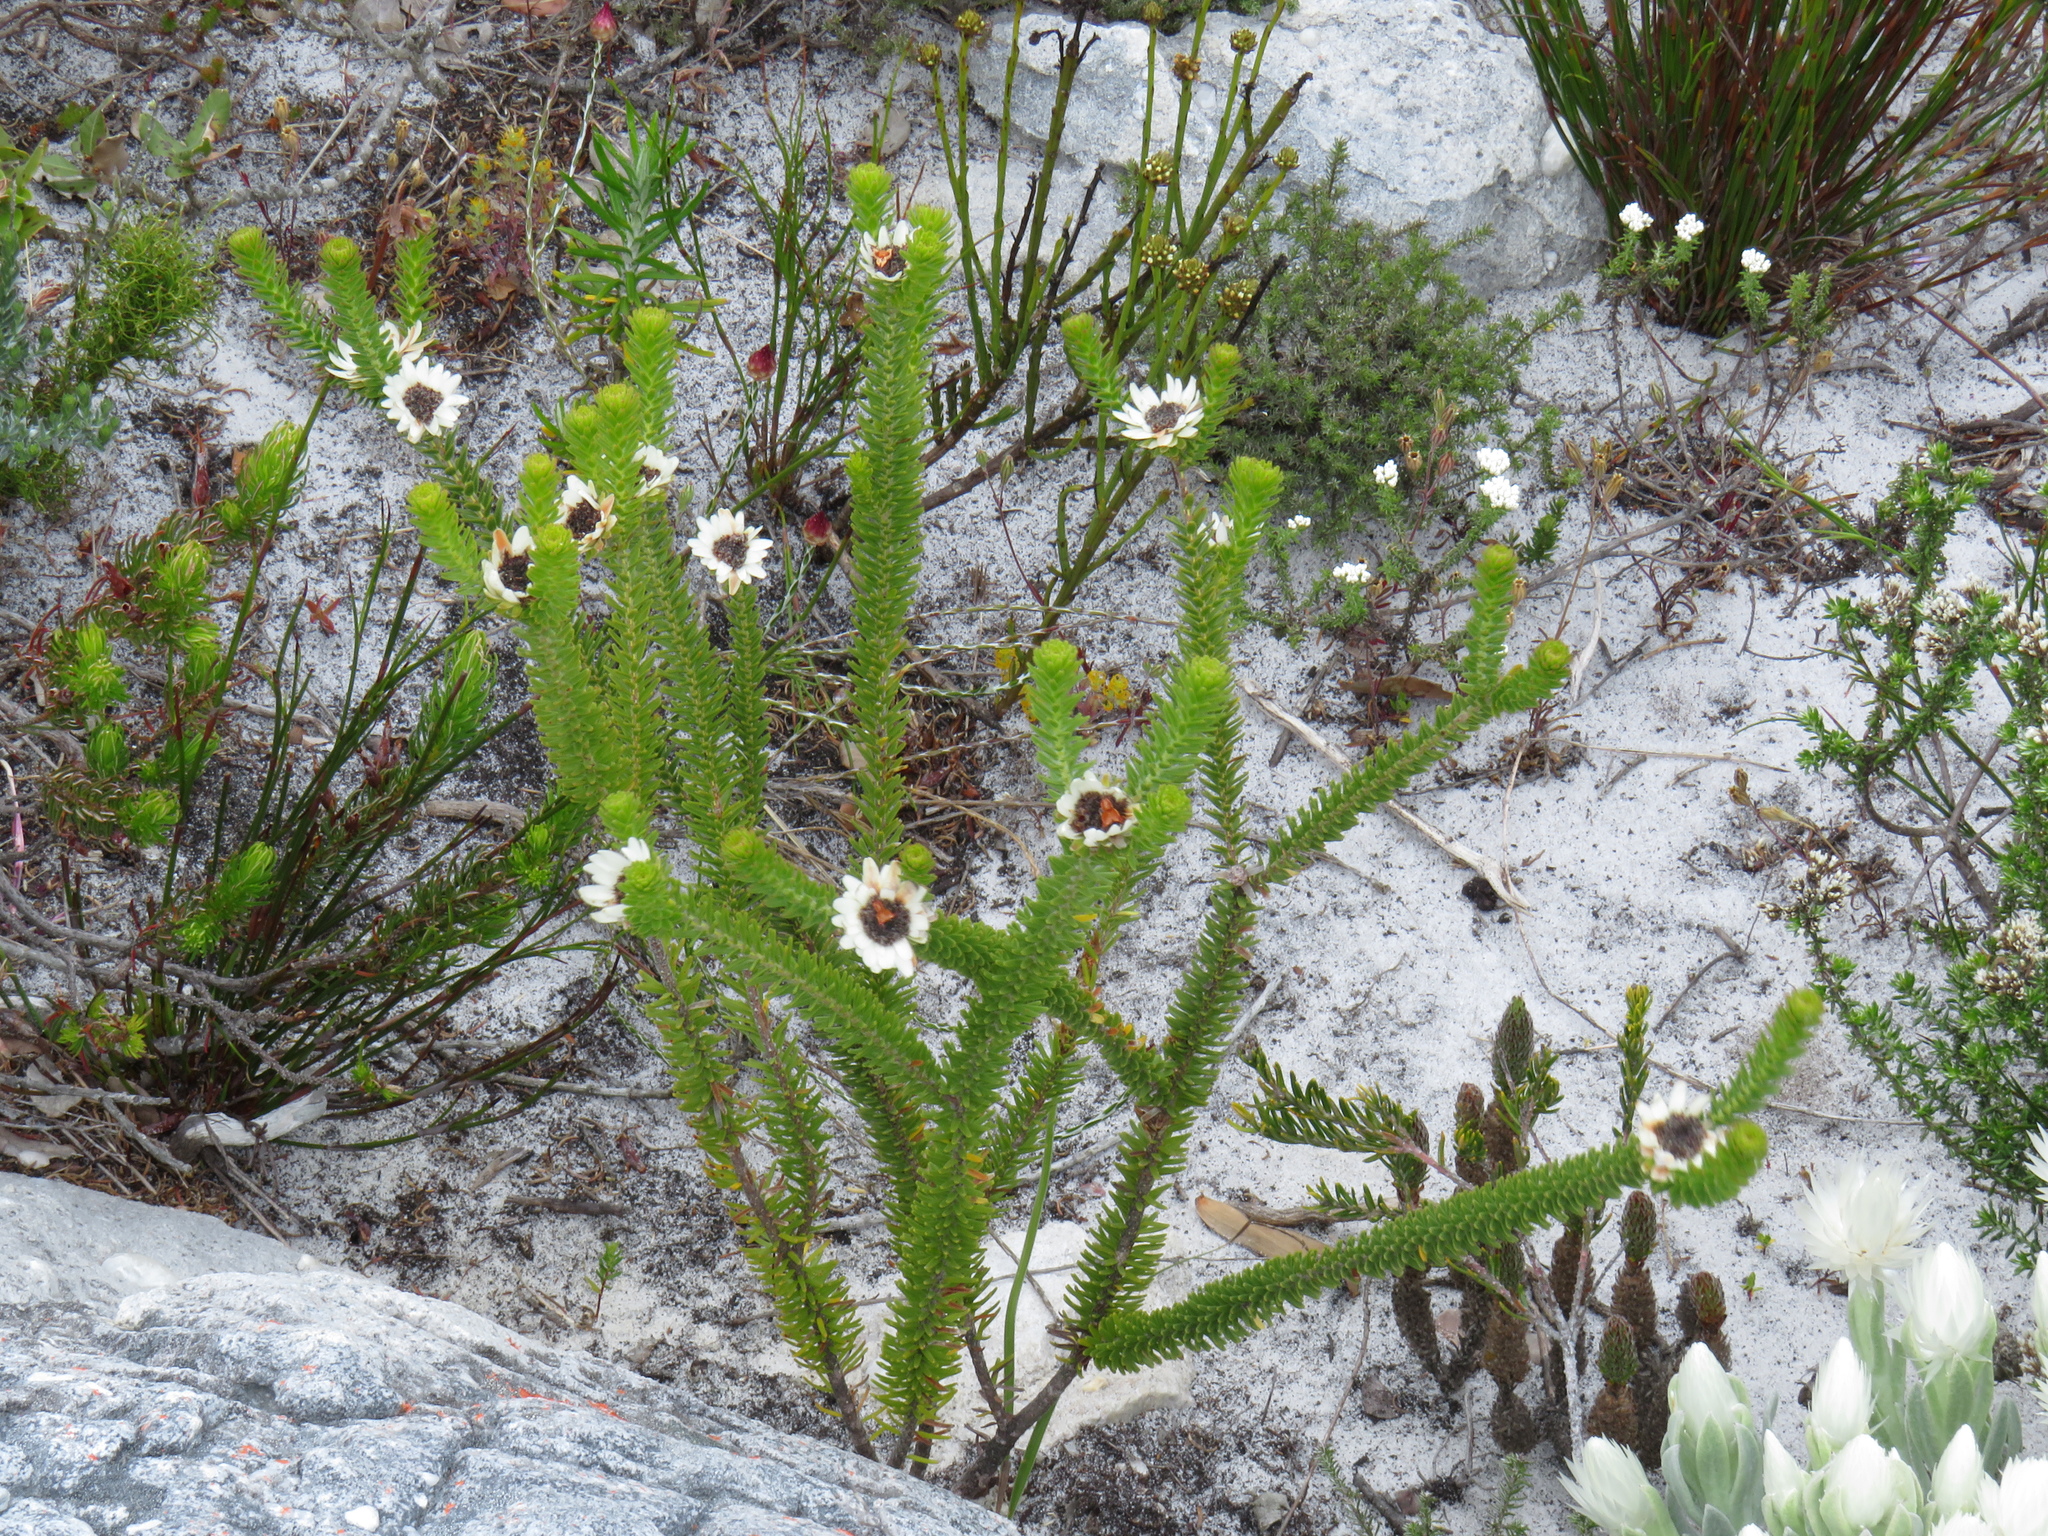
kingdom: Plantae
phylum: Tracheophyta
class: Magnoliopsida
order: Bruniales
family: Bruniaceae
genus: Staavia
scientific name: Staavia dodii
